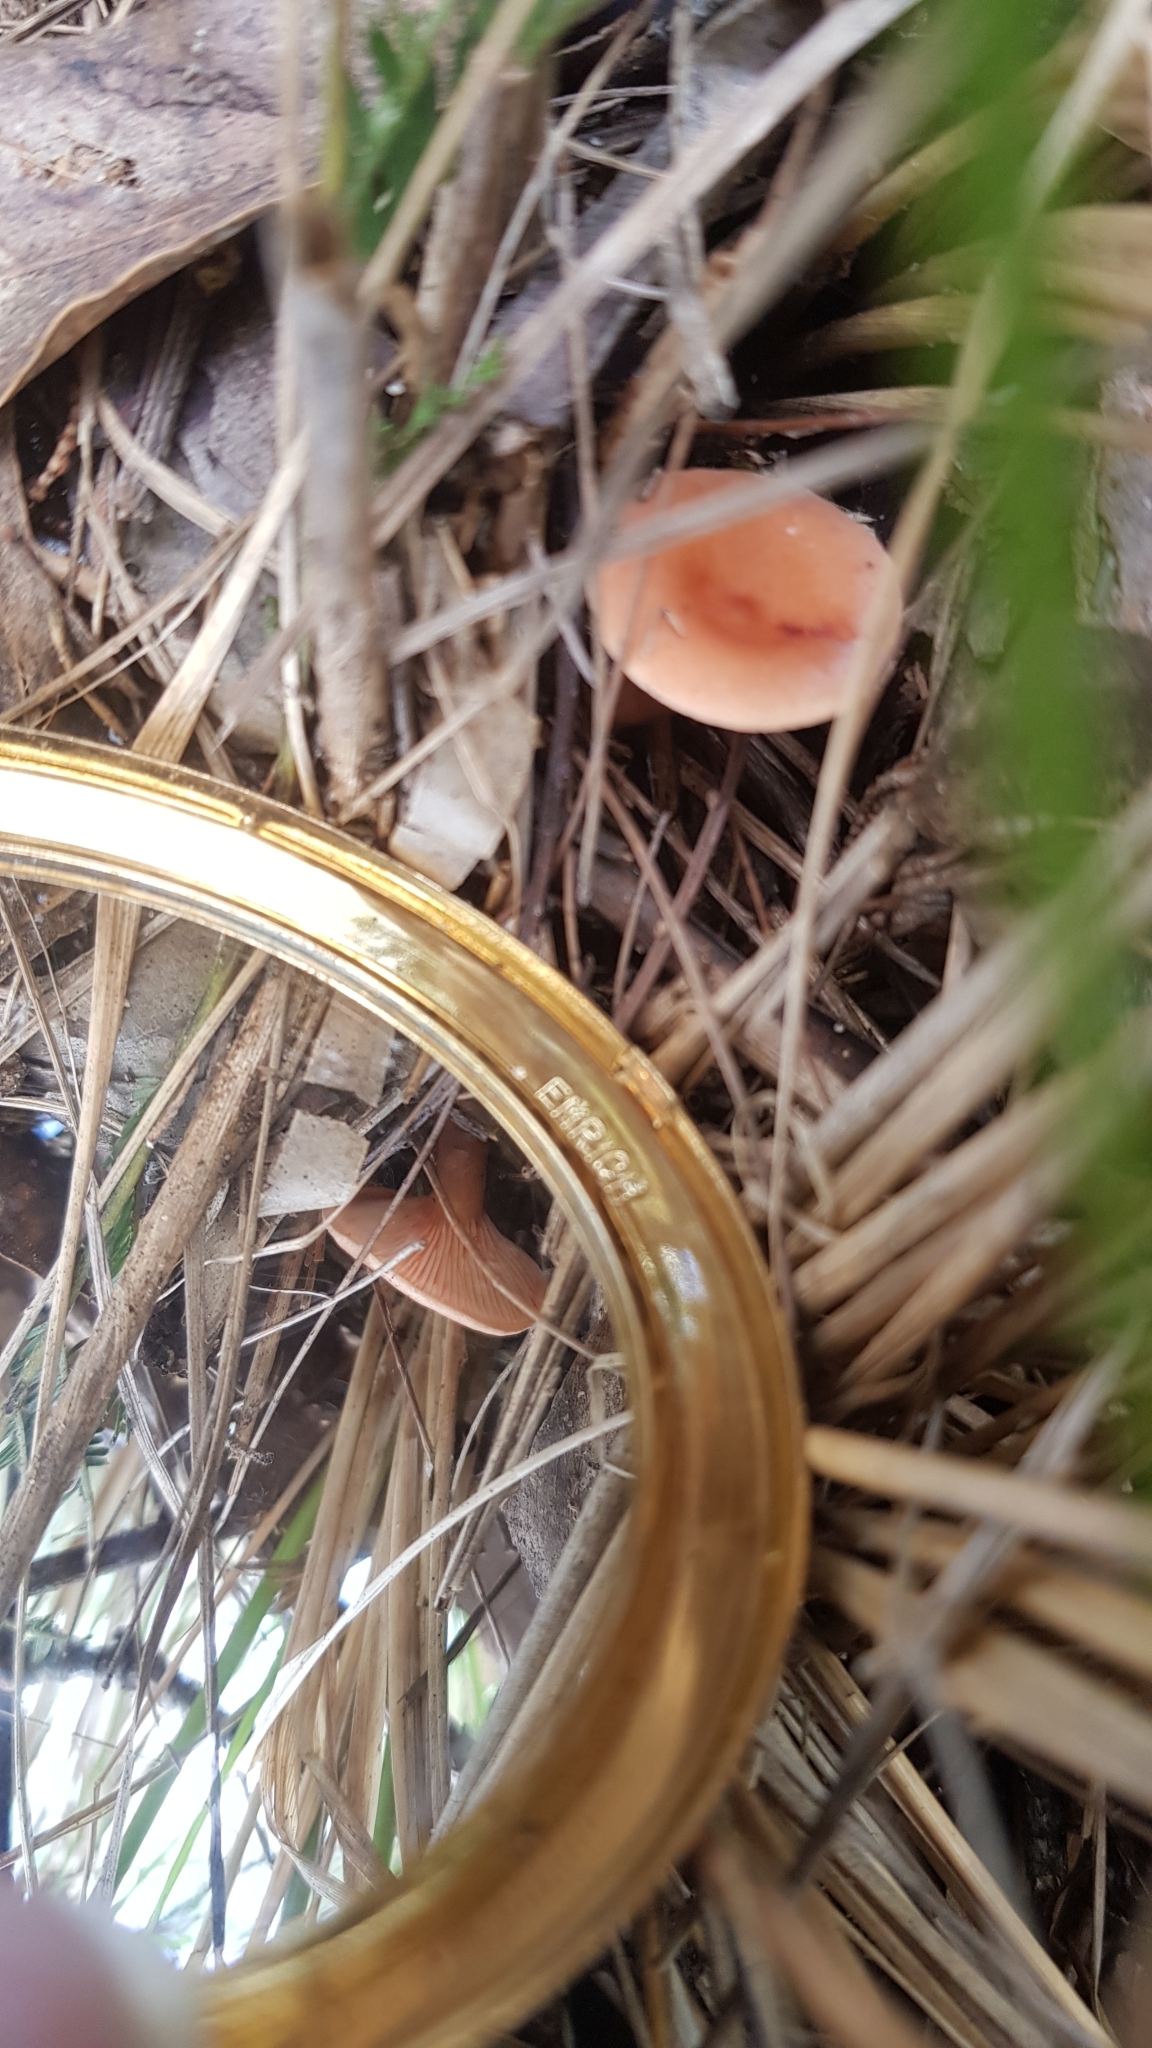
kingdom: Fungi
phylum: Basidiomycota
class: Agaricomycetes
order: Russulales
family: Russulaceae
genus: Lactarius
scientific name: Lactarius eucalypti
